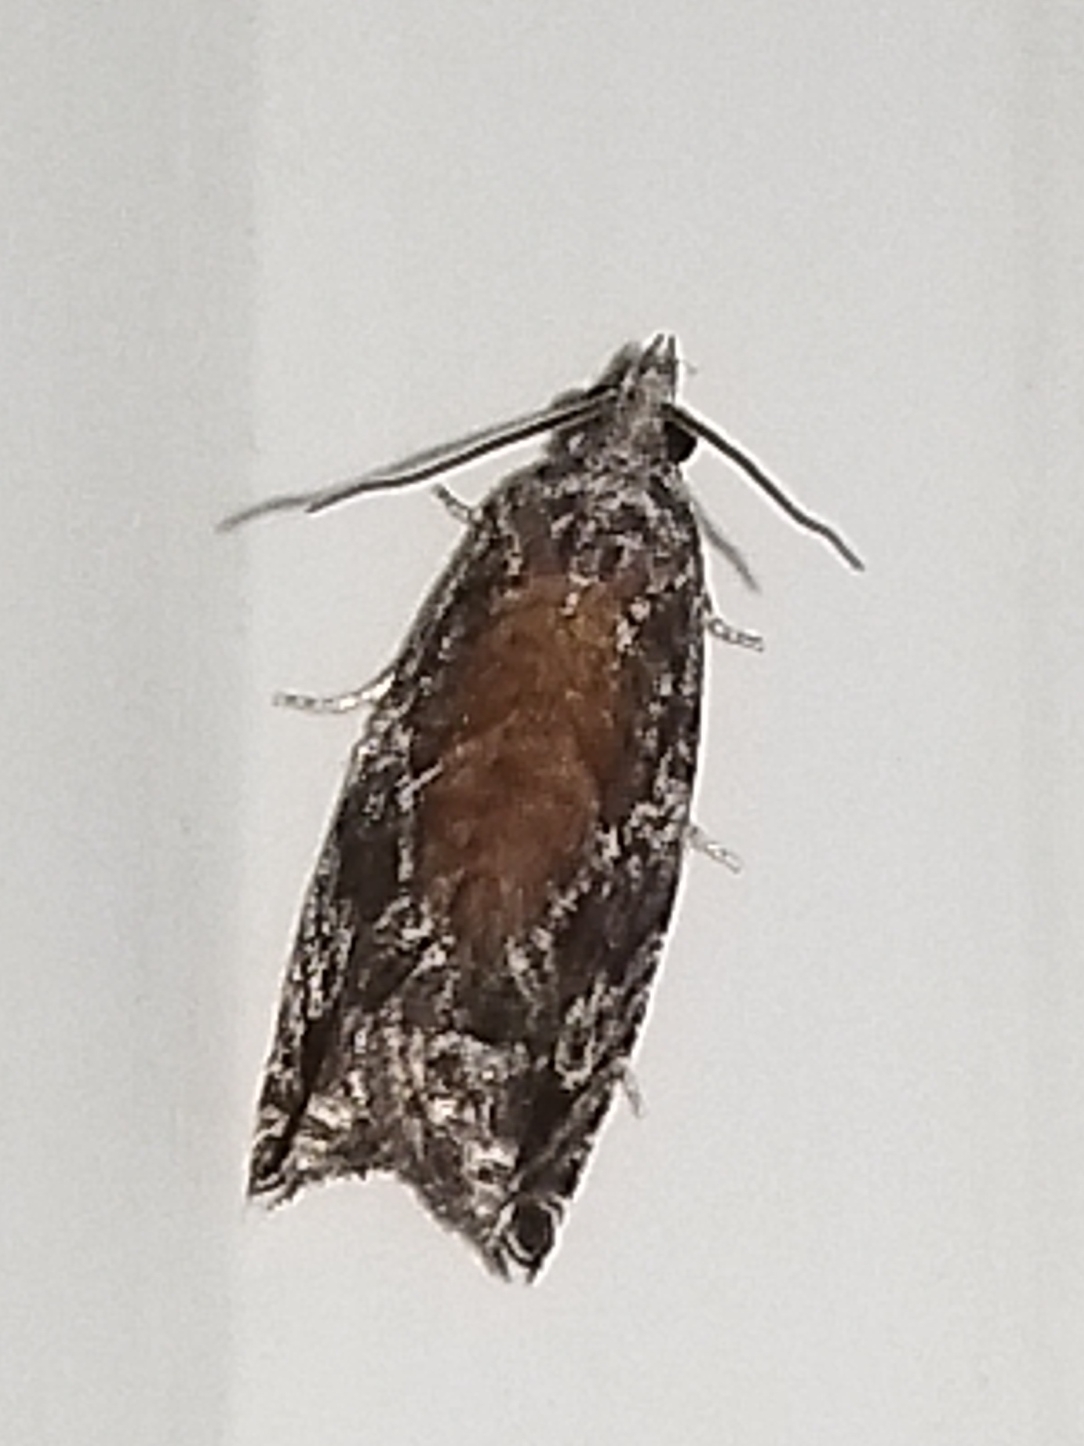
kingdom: Animalia
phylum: Arthropoda
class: Insecta
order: Lepidoptera
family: Tortricidae
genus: Epinotia
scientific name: Epinotia nisella
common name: Grey poplar bell
